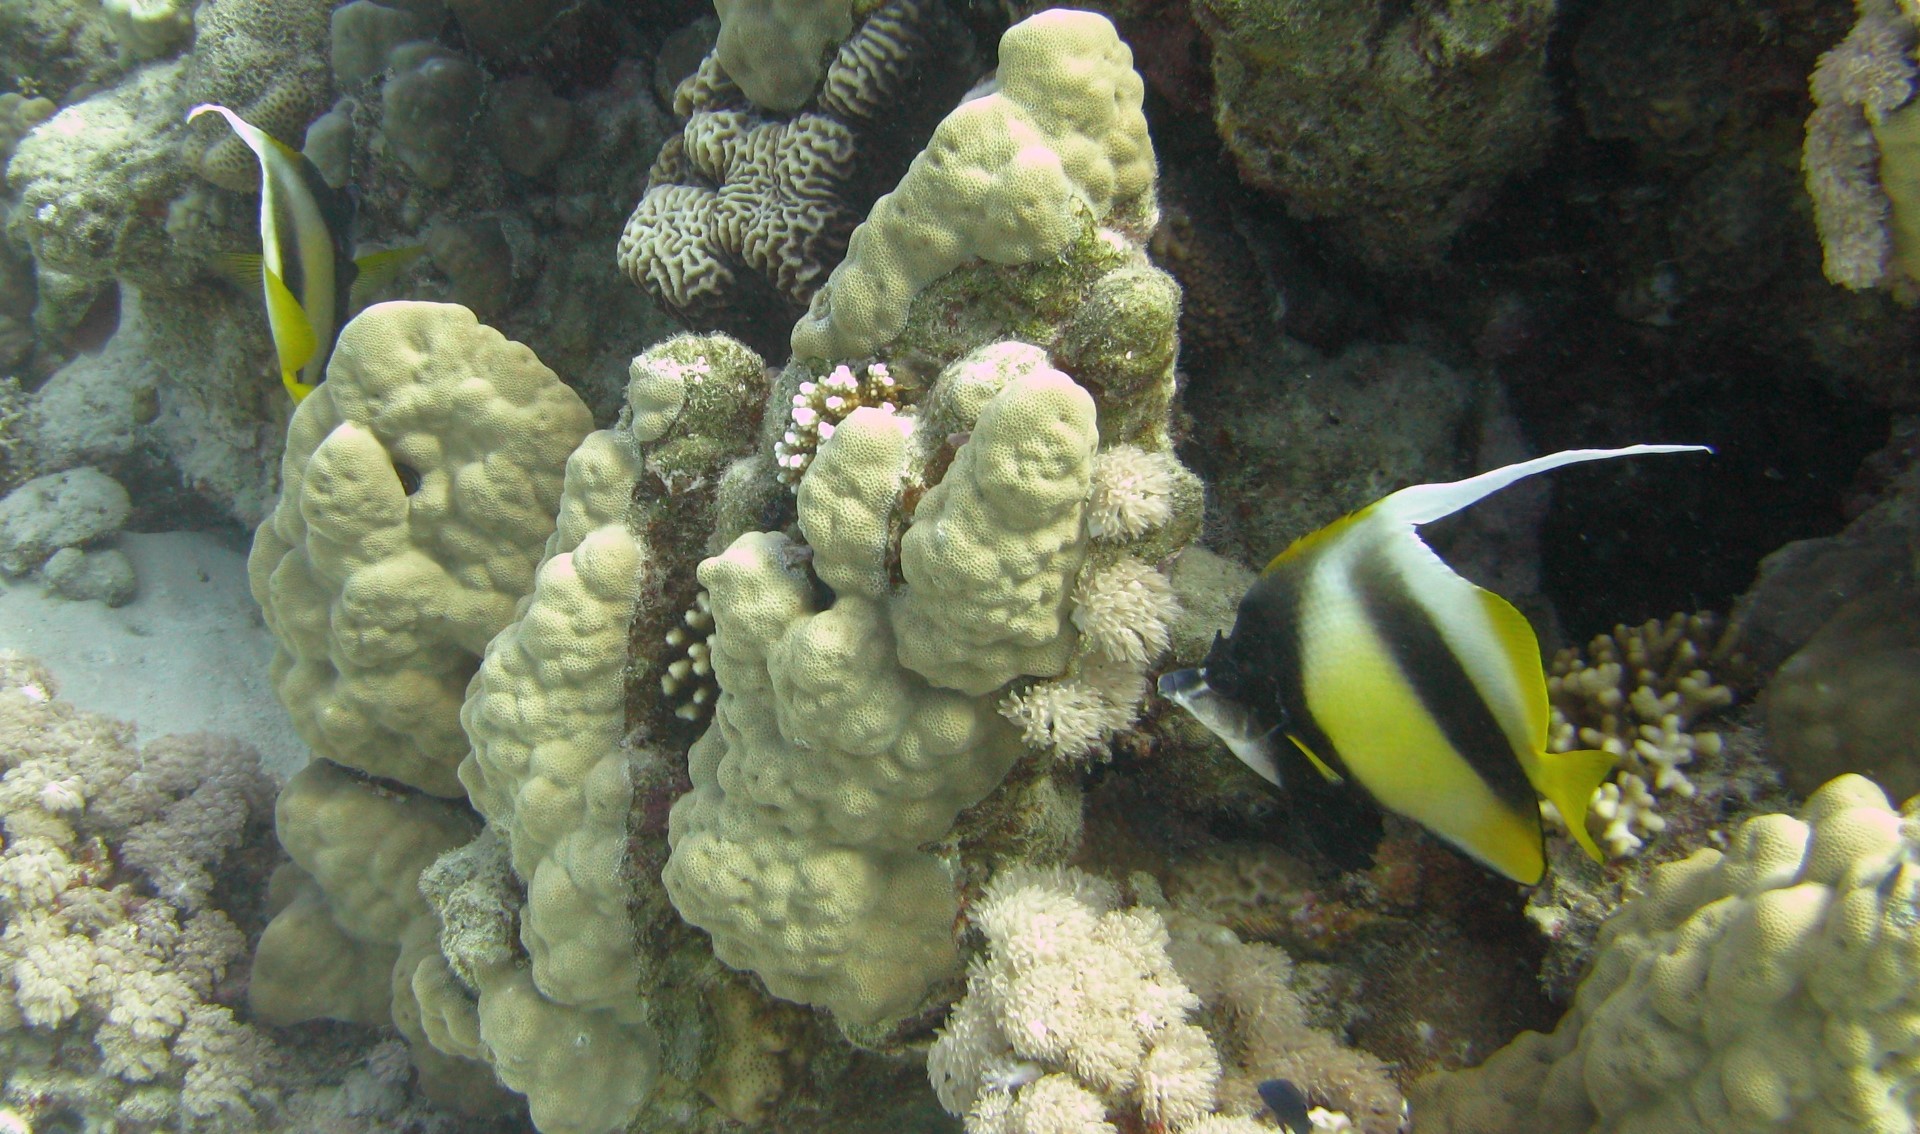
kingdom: Animalia
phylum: Chordata
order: Perciformes
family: Chaetodontidae
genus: Heniochus
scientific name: Heniochus intermedius
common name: Red sea bannerfish
